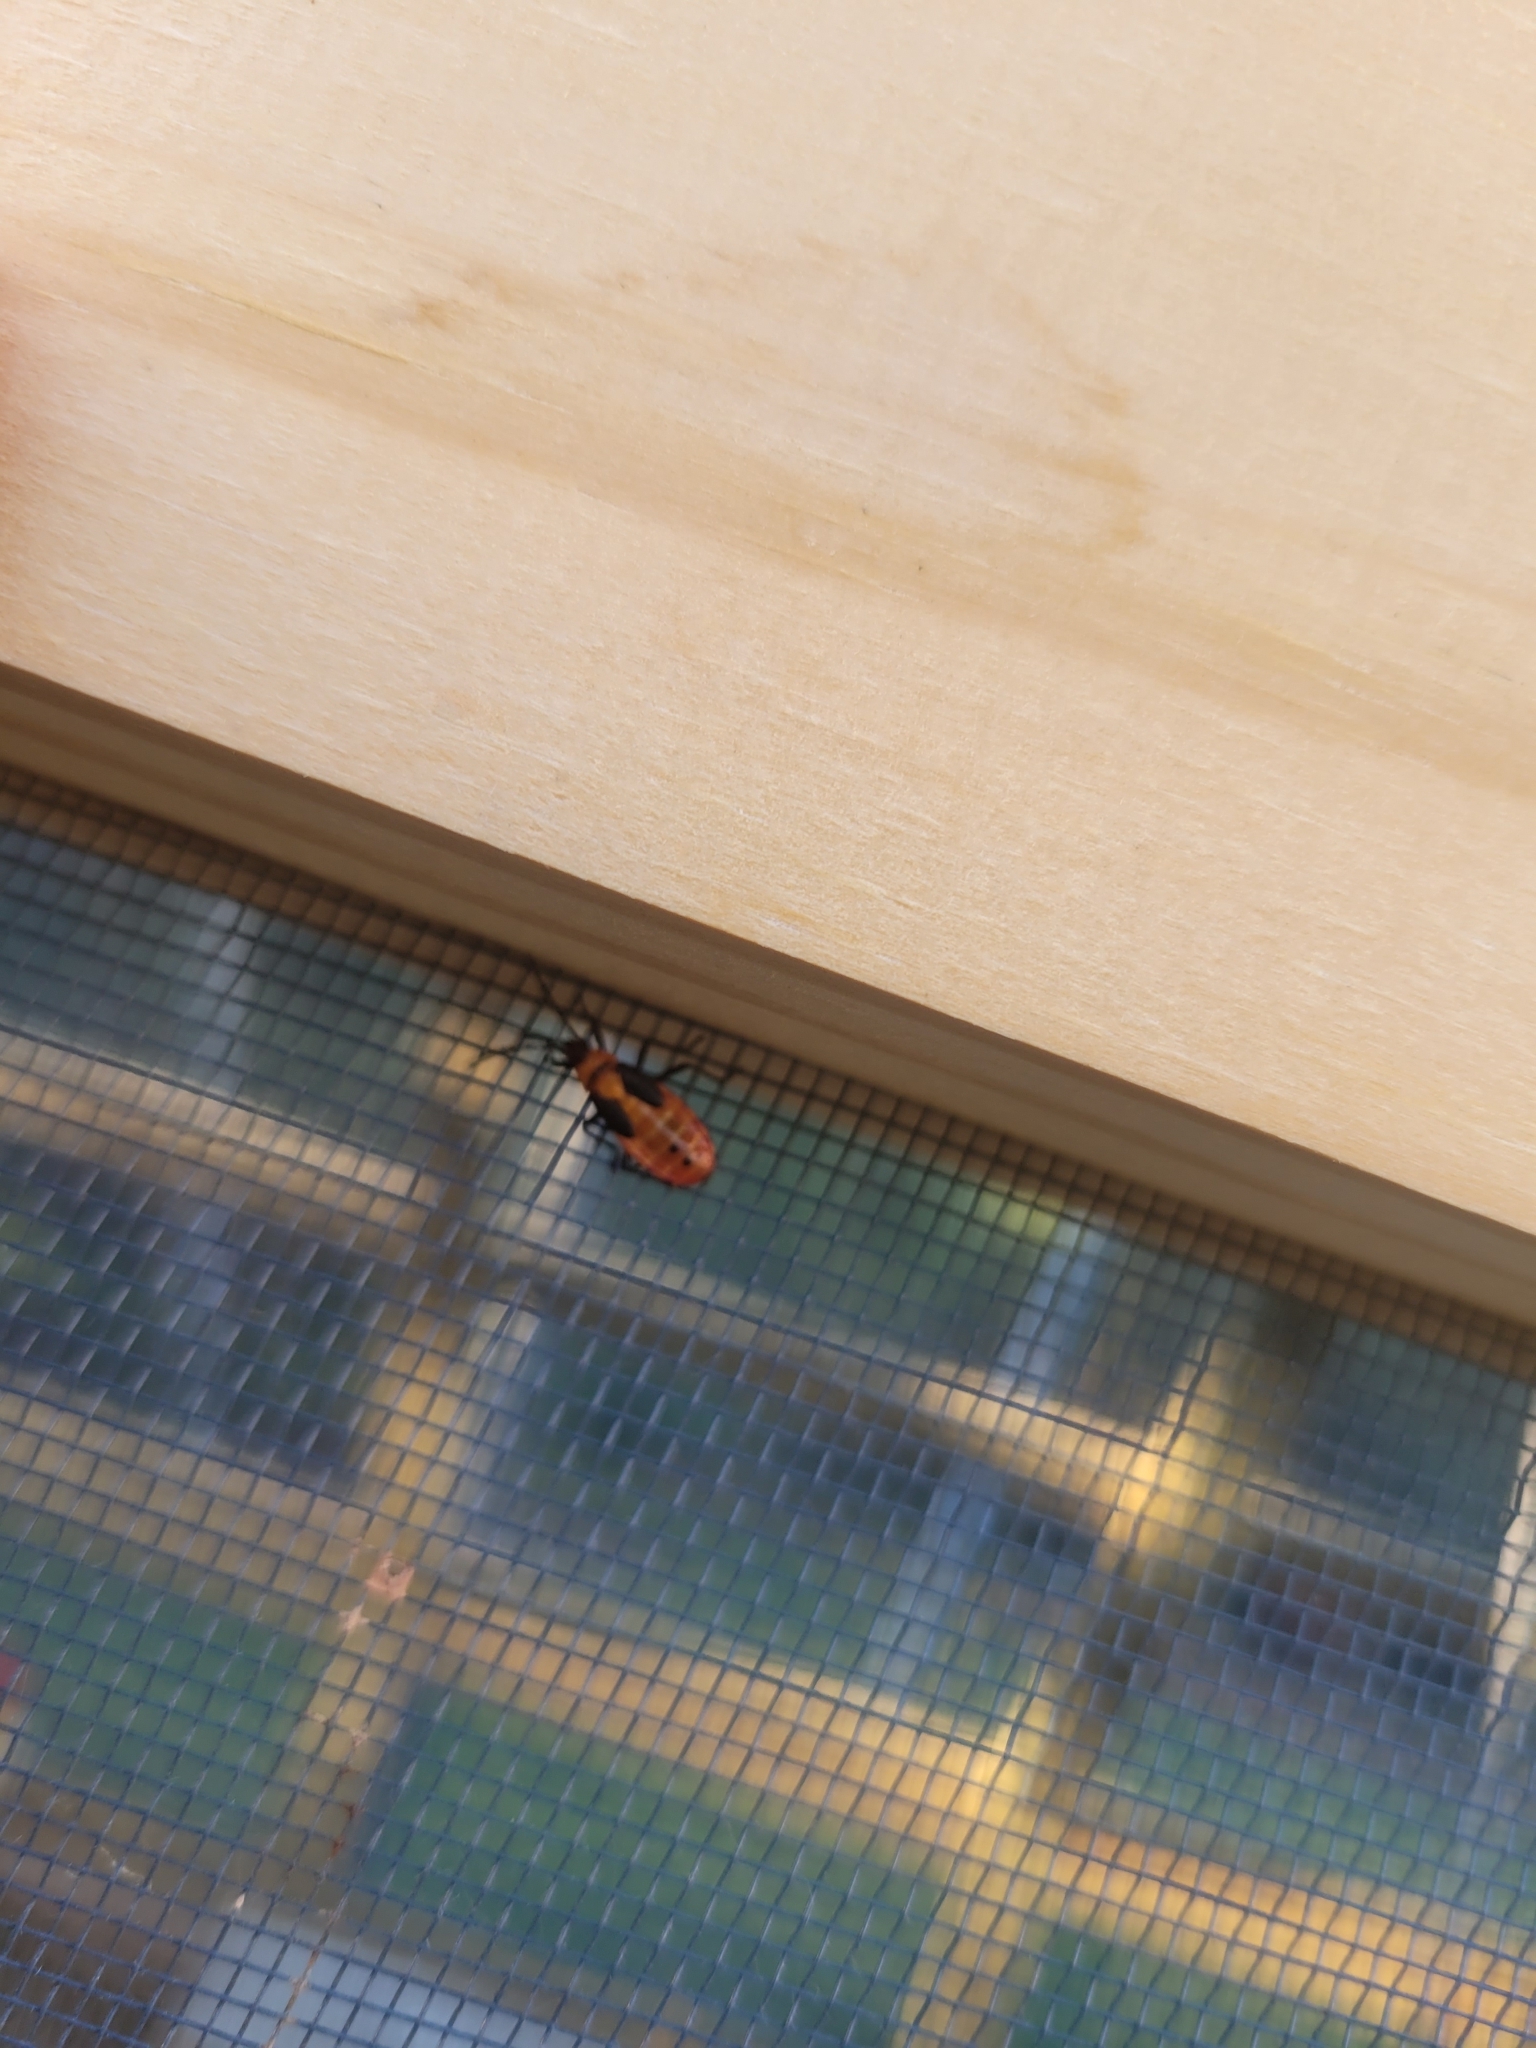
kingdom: Animalia
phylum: Arthropoda
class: Insecta
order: Hemiptera
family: Lygaeidae
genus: Oncopeltus
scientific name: Oncopeltus fasciatus
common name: Large milkweed bug
